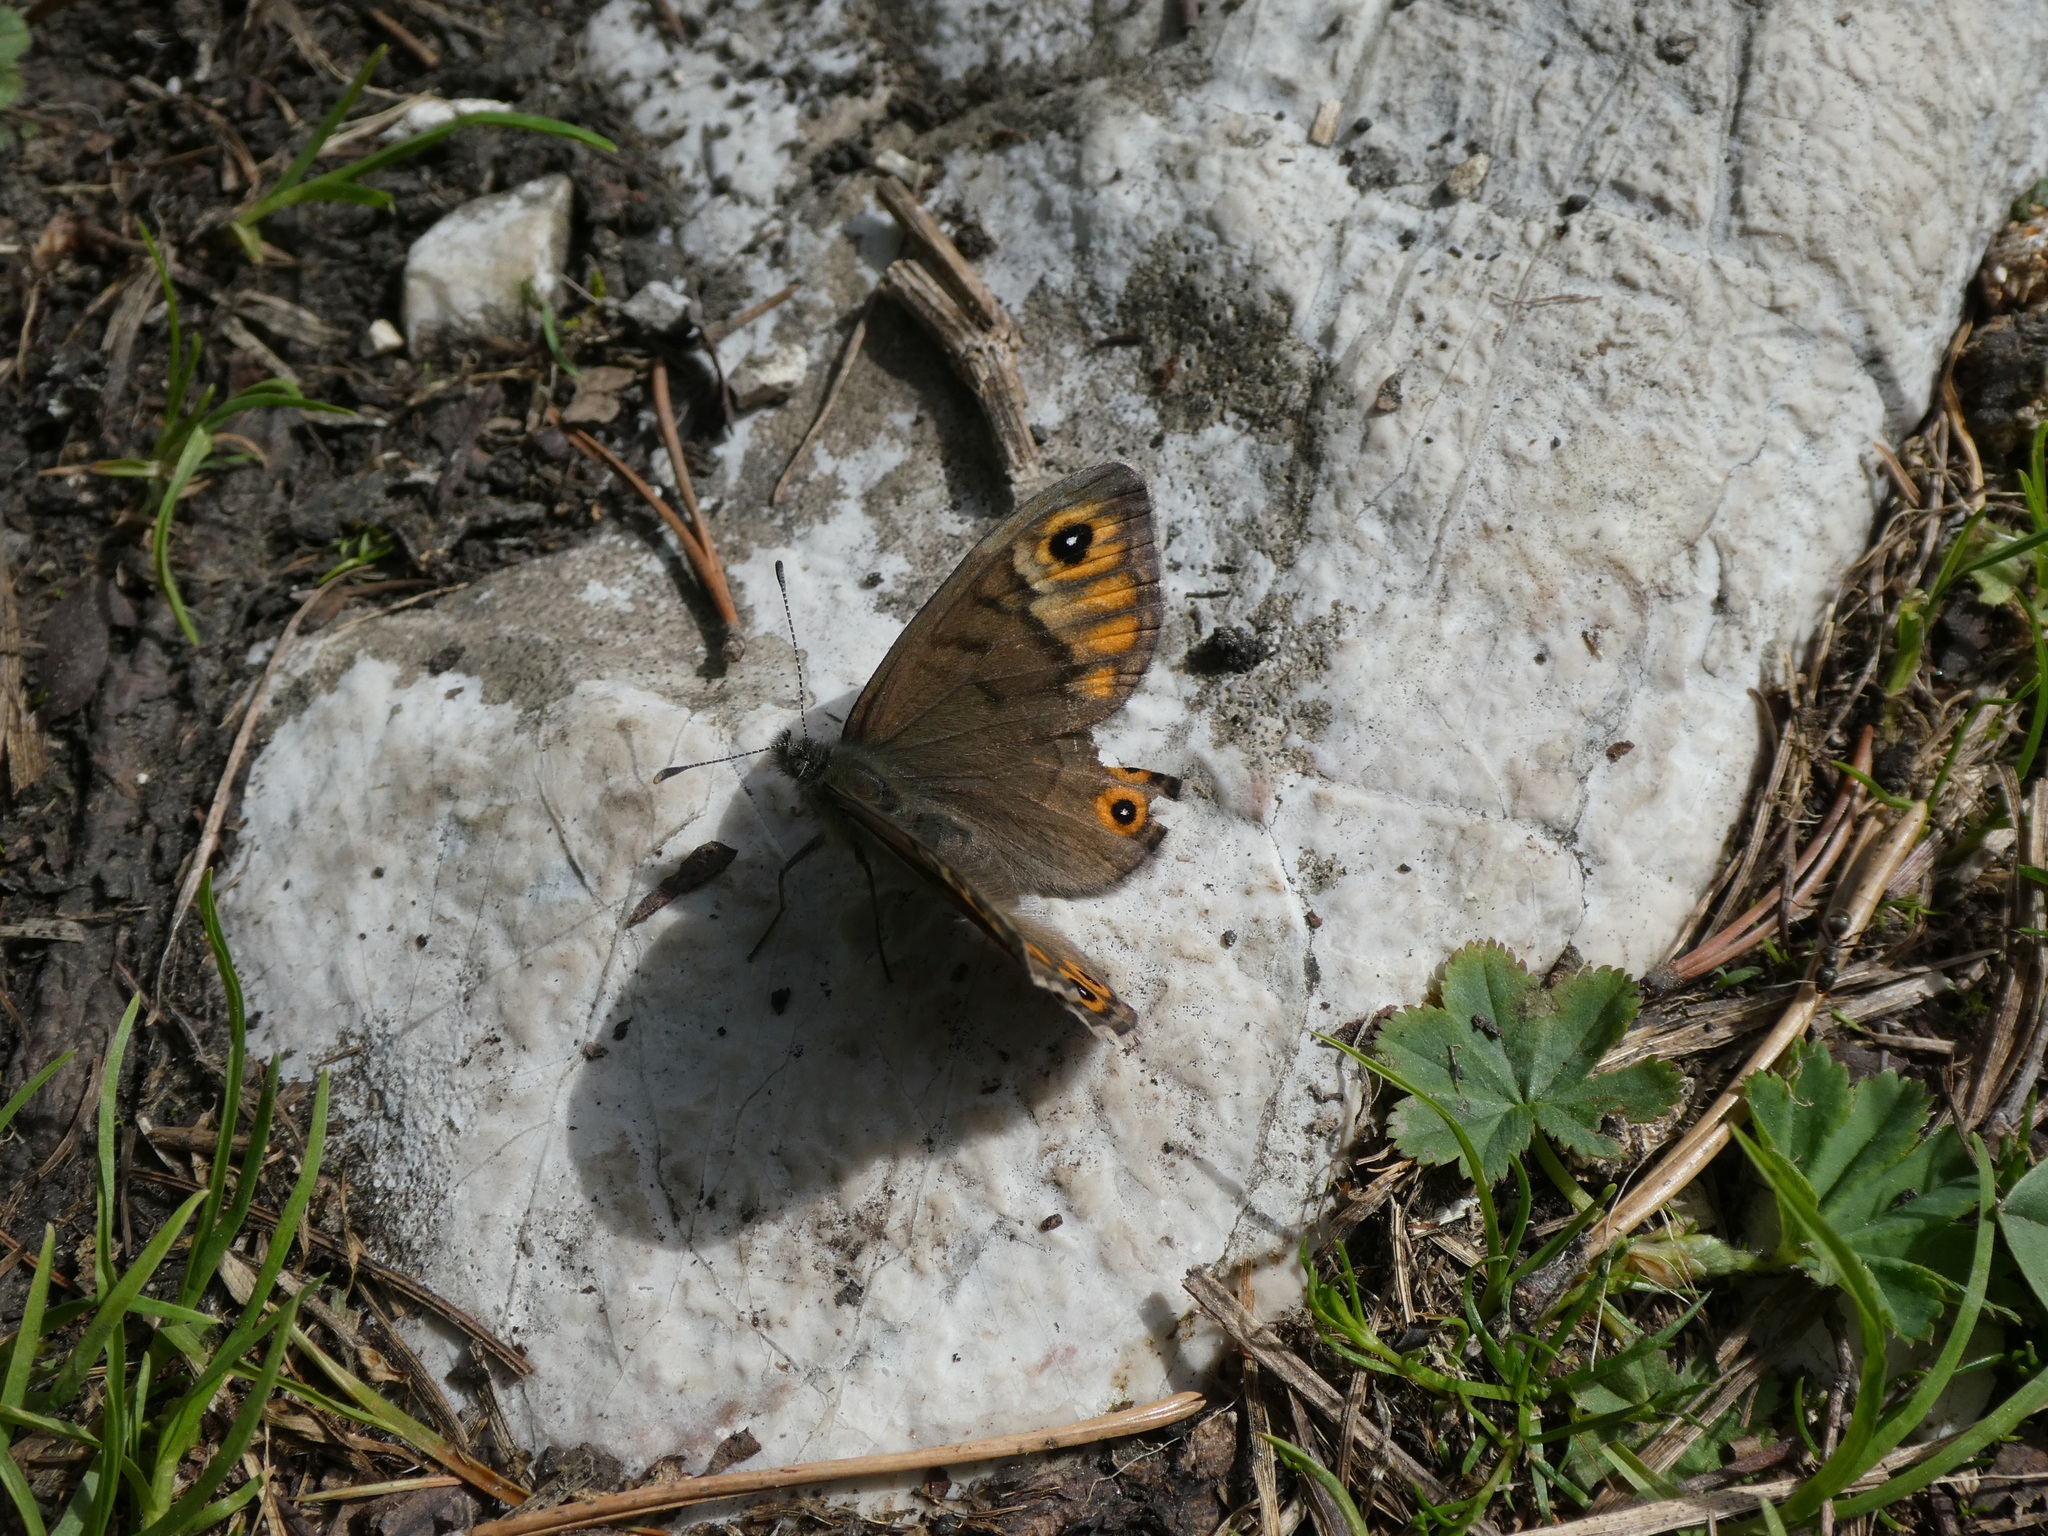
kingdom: Animalia
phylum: Arthropoda
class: Insecta
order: Lepidoptera
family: Nymphalidae
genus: Pararge
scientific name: Pararge petropolitana
